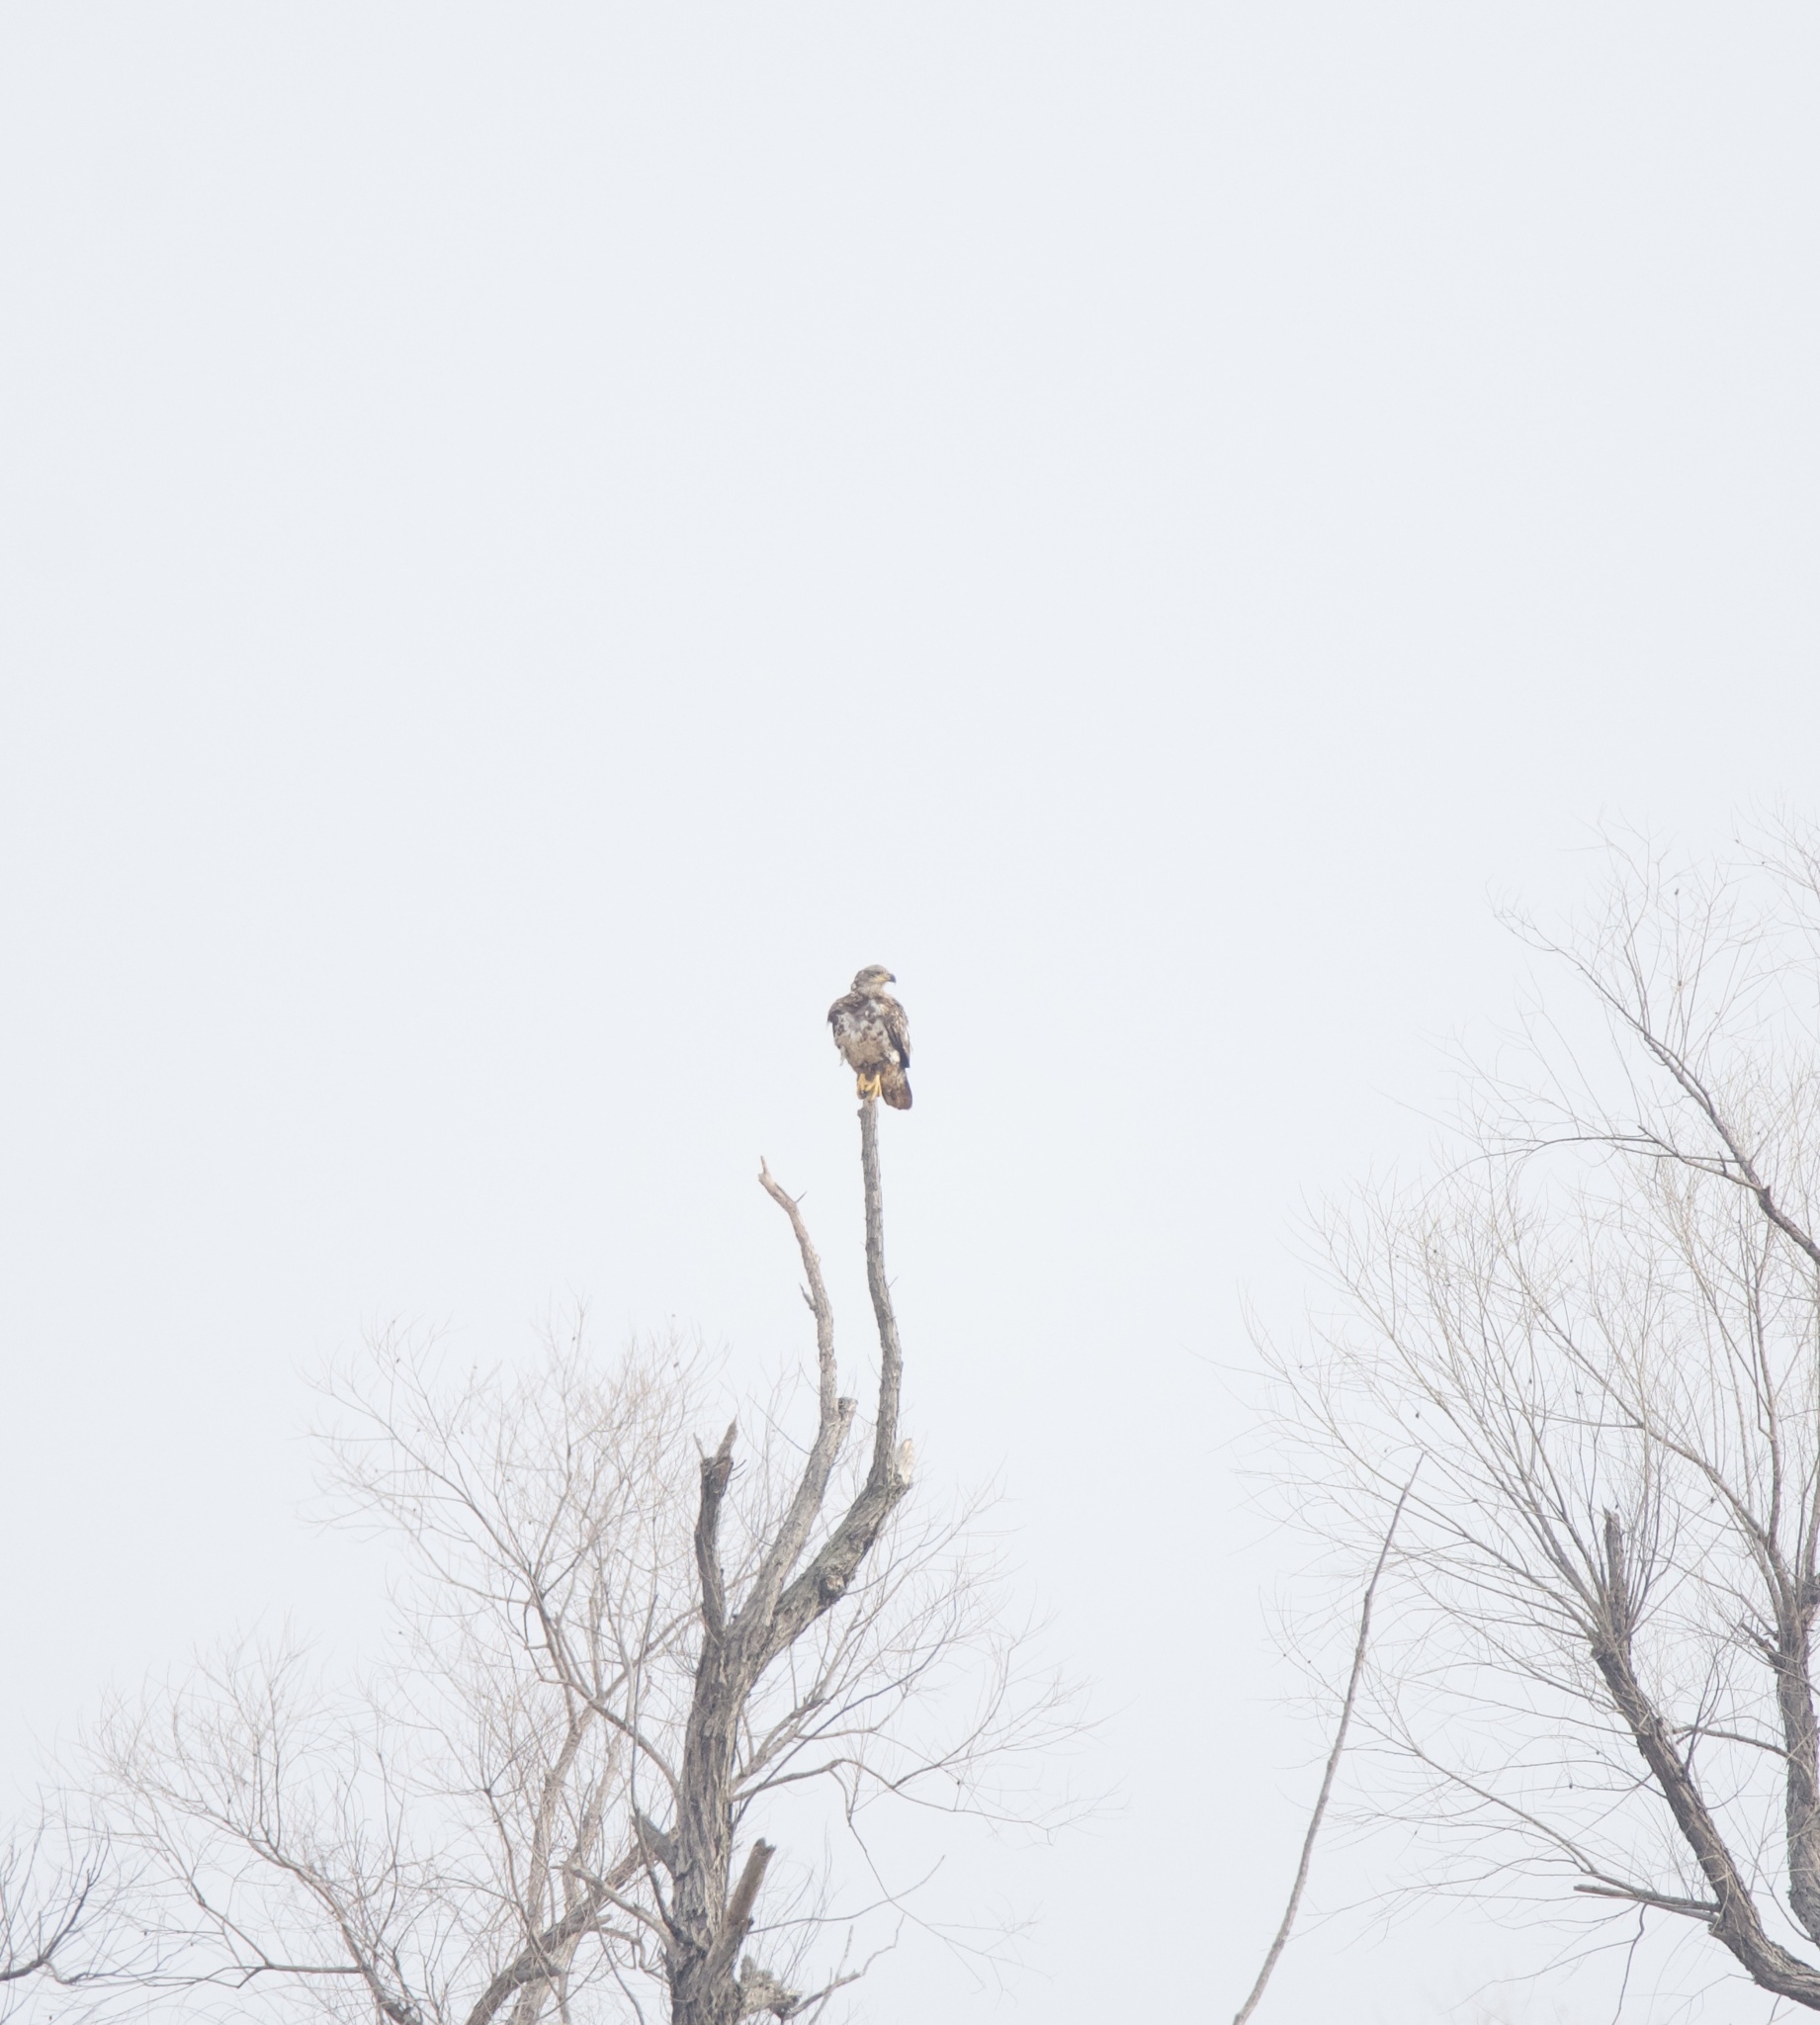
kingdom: Animalia
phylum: Chordata
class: Aves
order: Accipitriformes
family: Accipitridae
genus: Haliaeetus
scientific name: Haliaeetus leucocephalus
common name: Bald eagle
